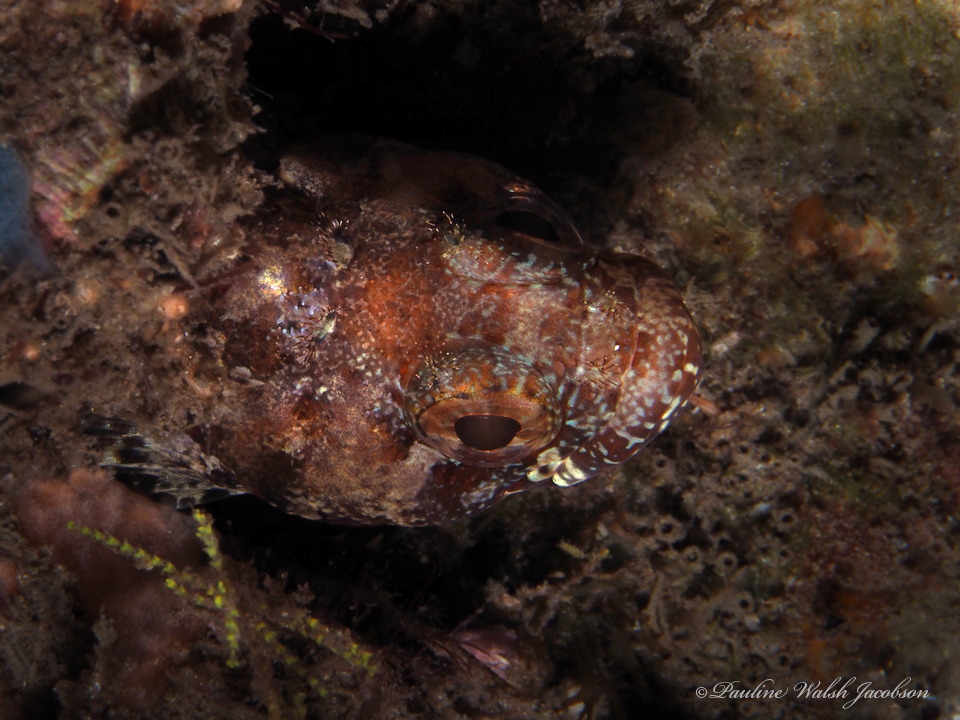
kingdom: Animalia
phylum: Chordata
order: Perciformes
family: Labrisomidae
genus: Gobioclinus
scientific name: Gobioclinus kalisherae
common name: Downy blenny
